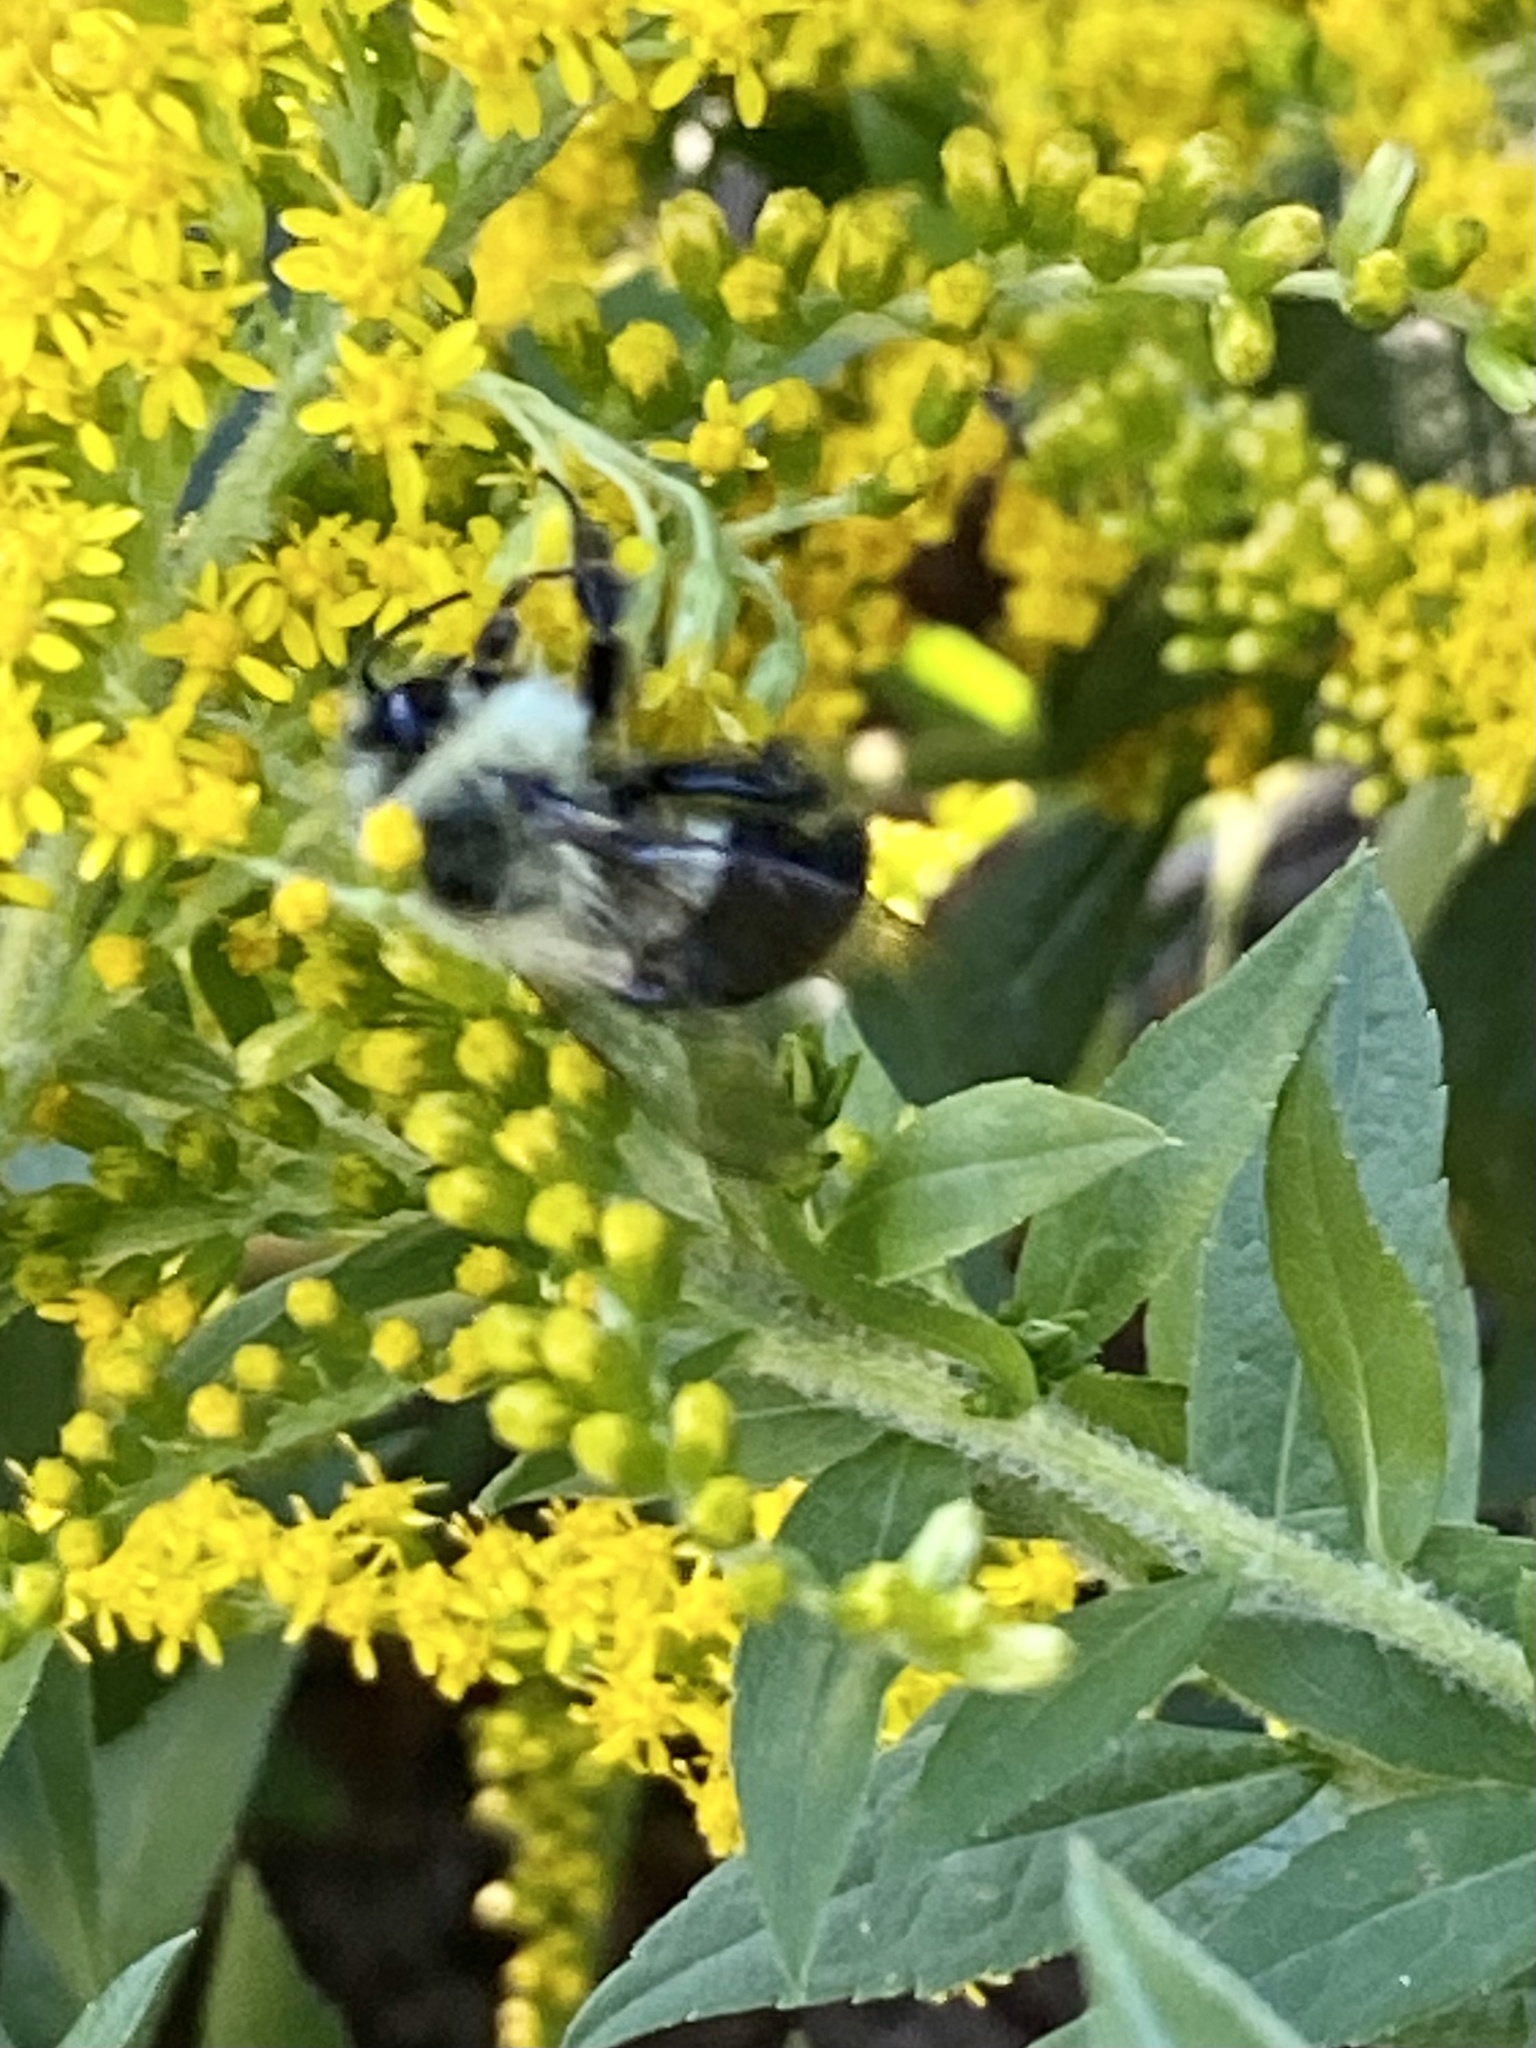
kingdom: Animalia
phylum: Arthropoda
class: Insecta
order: Hymenoptera
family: Apidae
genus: Bombus
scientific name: Bombus impatiens
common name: Common eastern bumble bee
